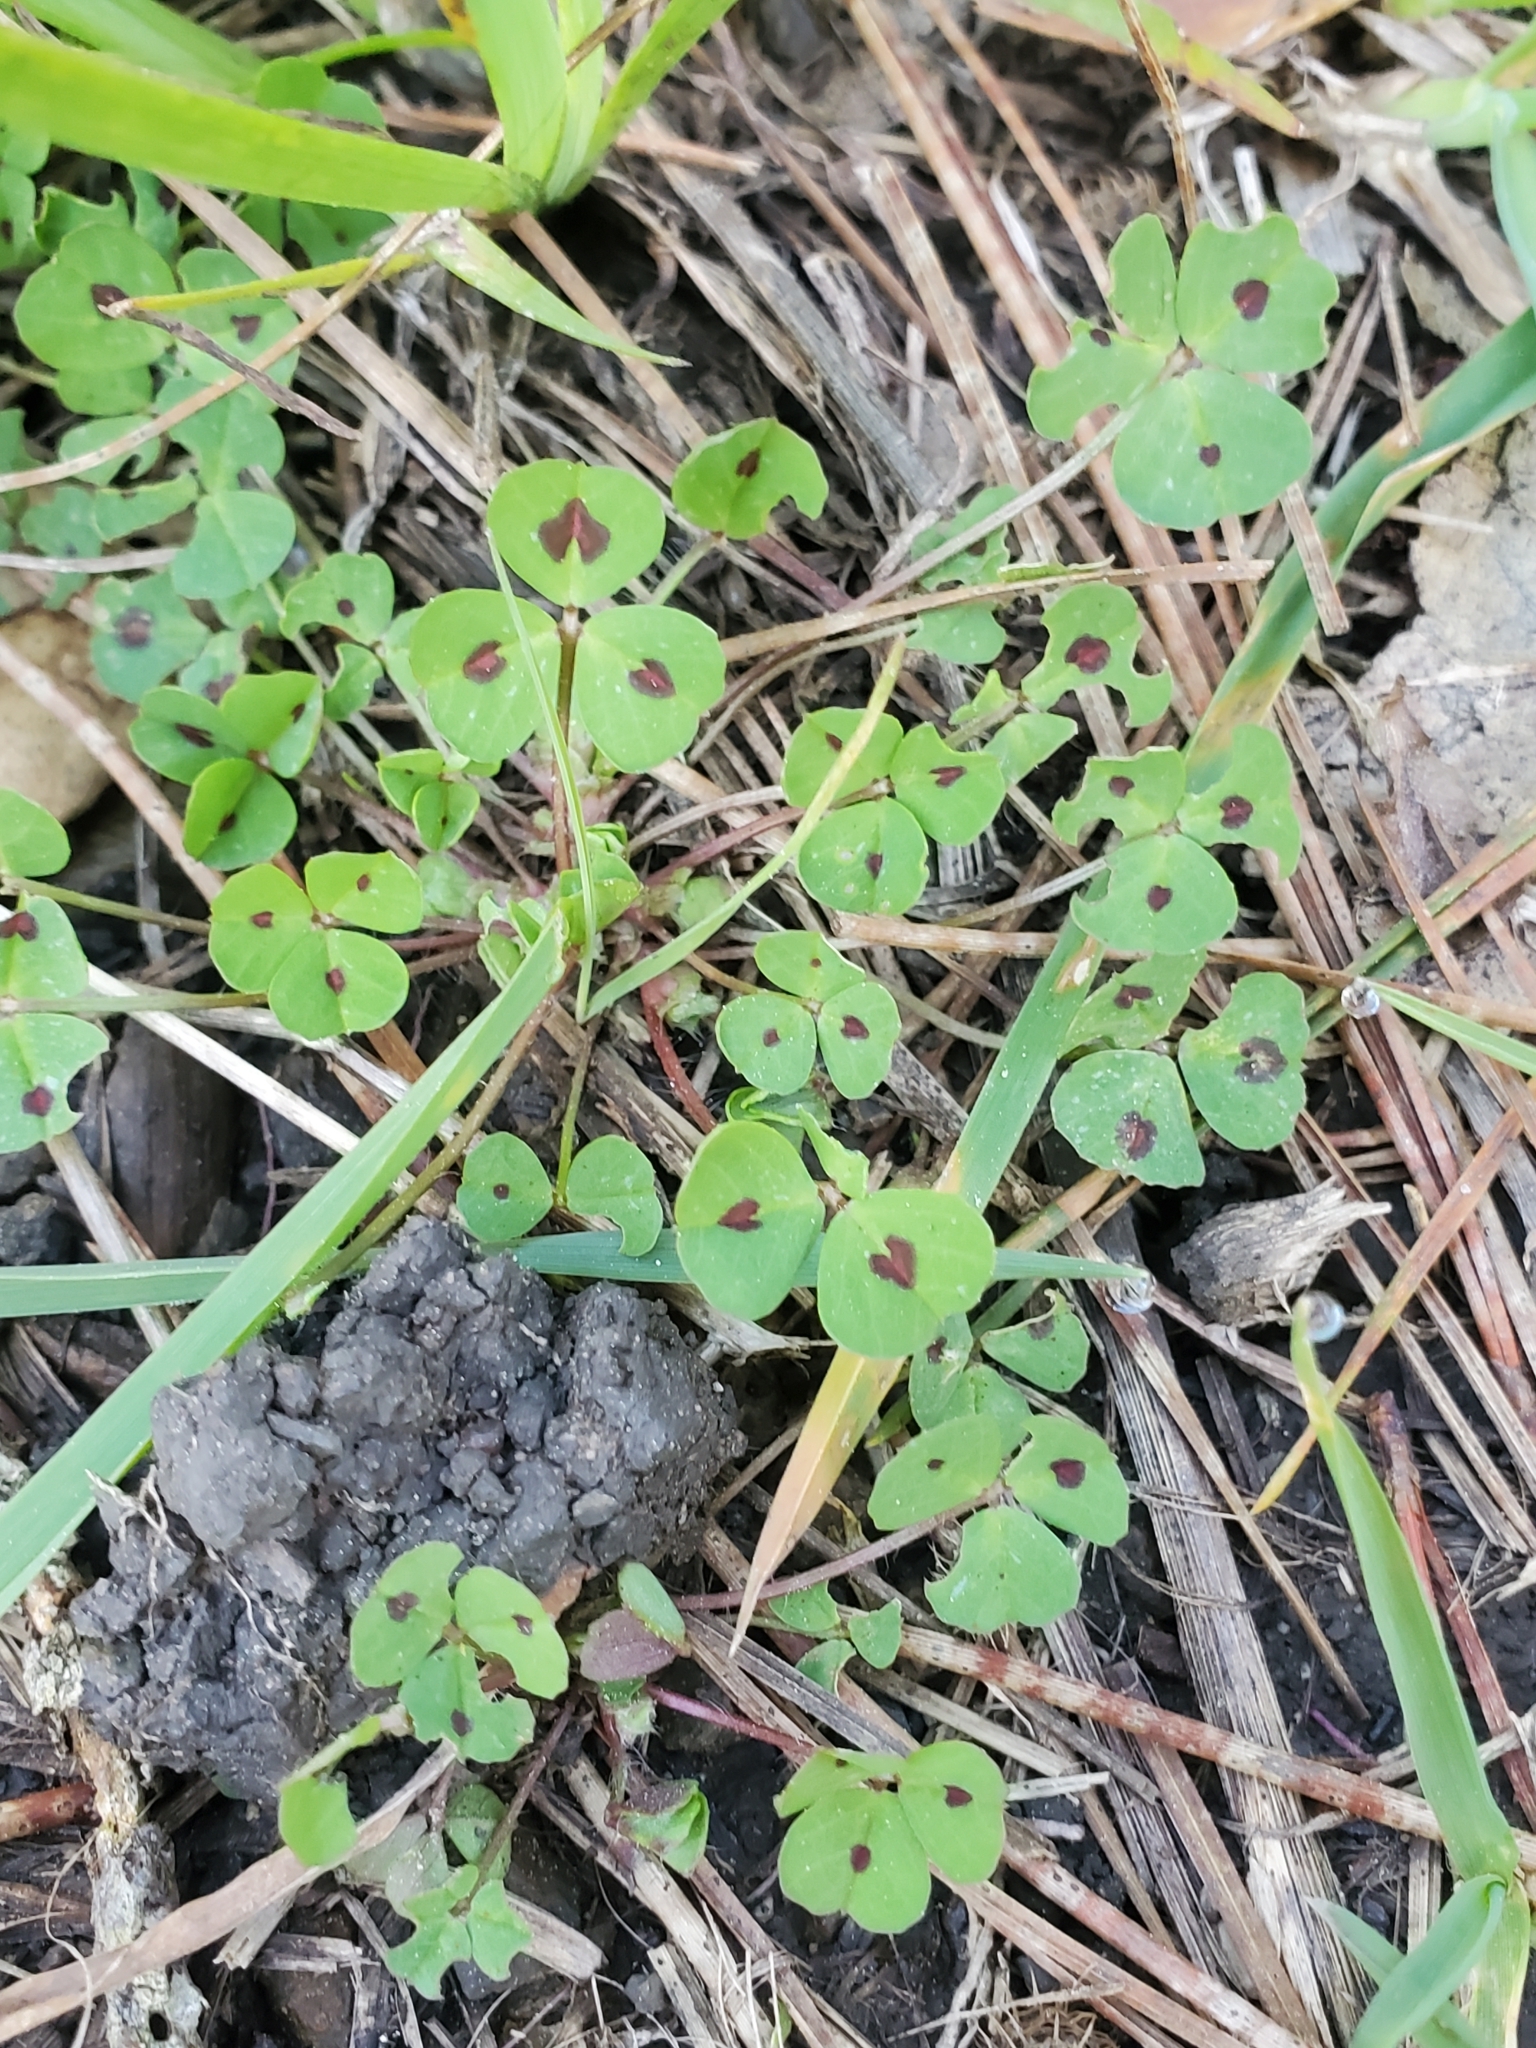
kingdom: Plantae
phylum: Tracheophyta
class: Magnoliopsida
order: Fabales
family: Fabaceae
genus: Medicago
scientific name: Medicago arabica
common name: Spotted medick
